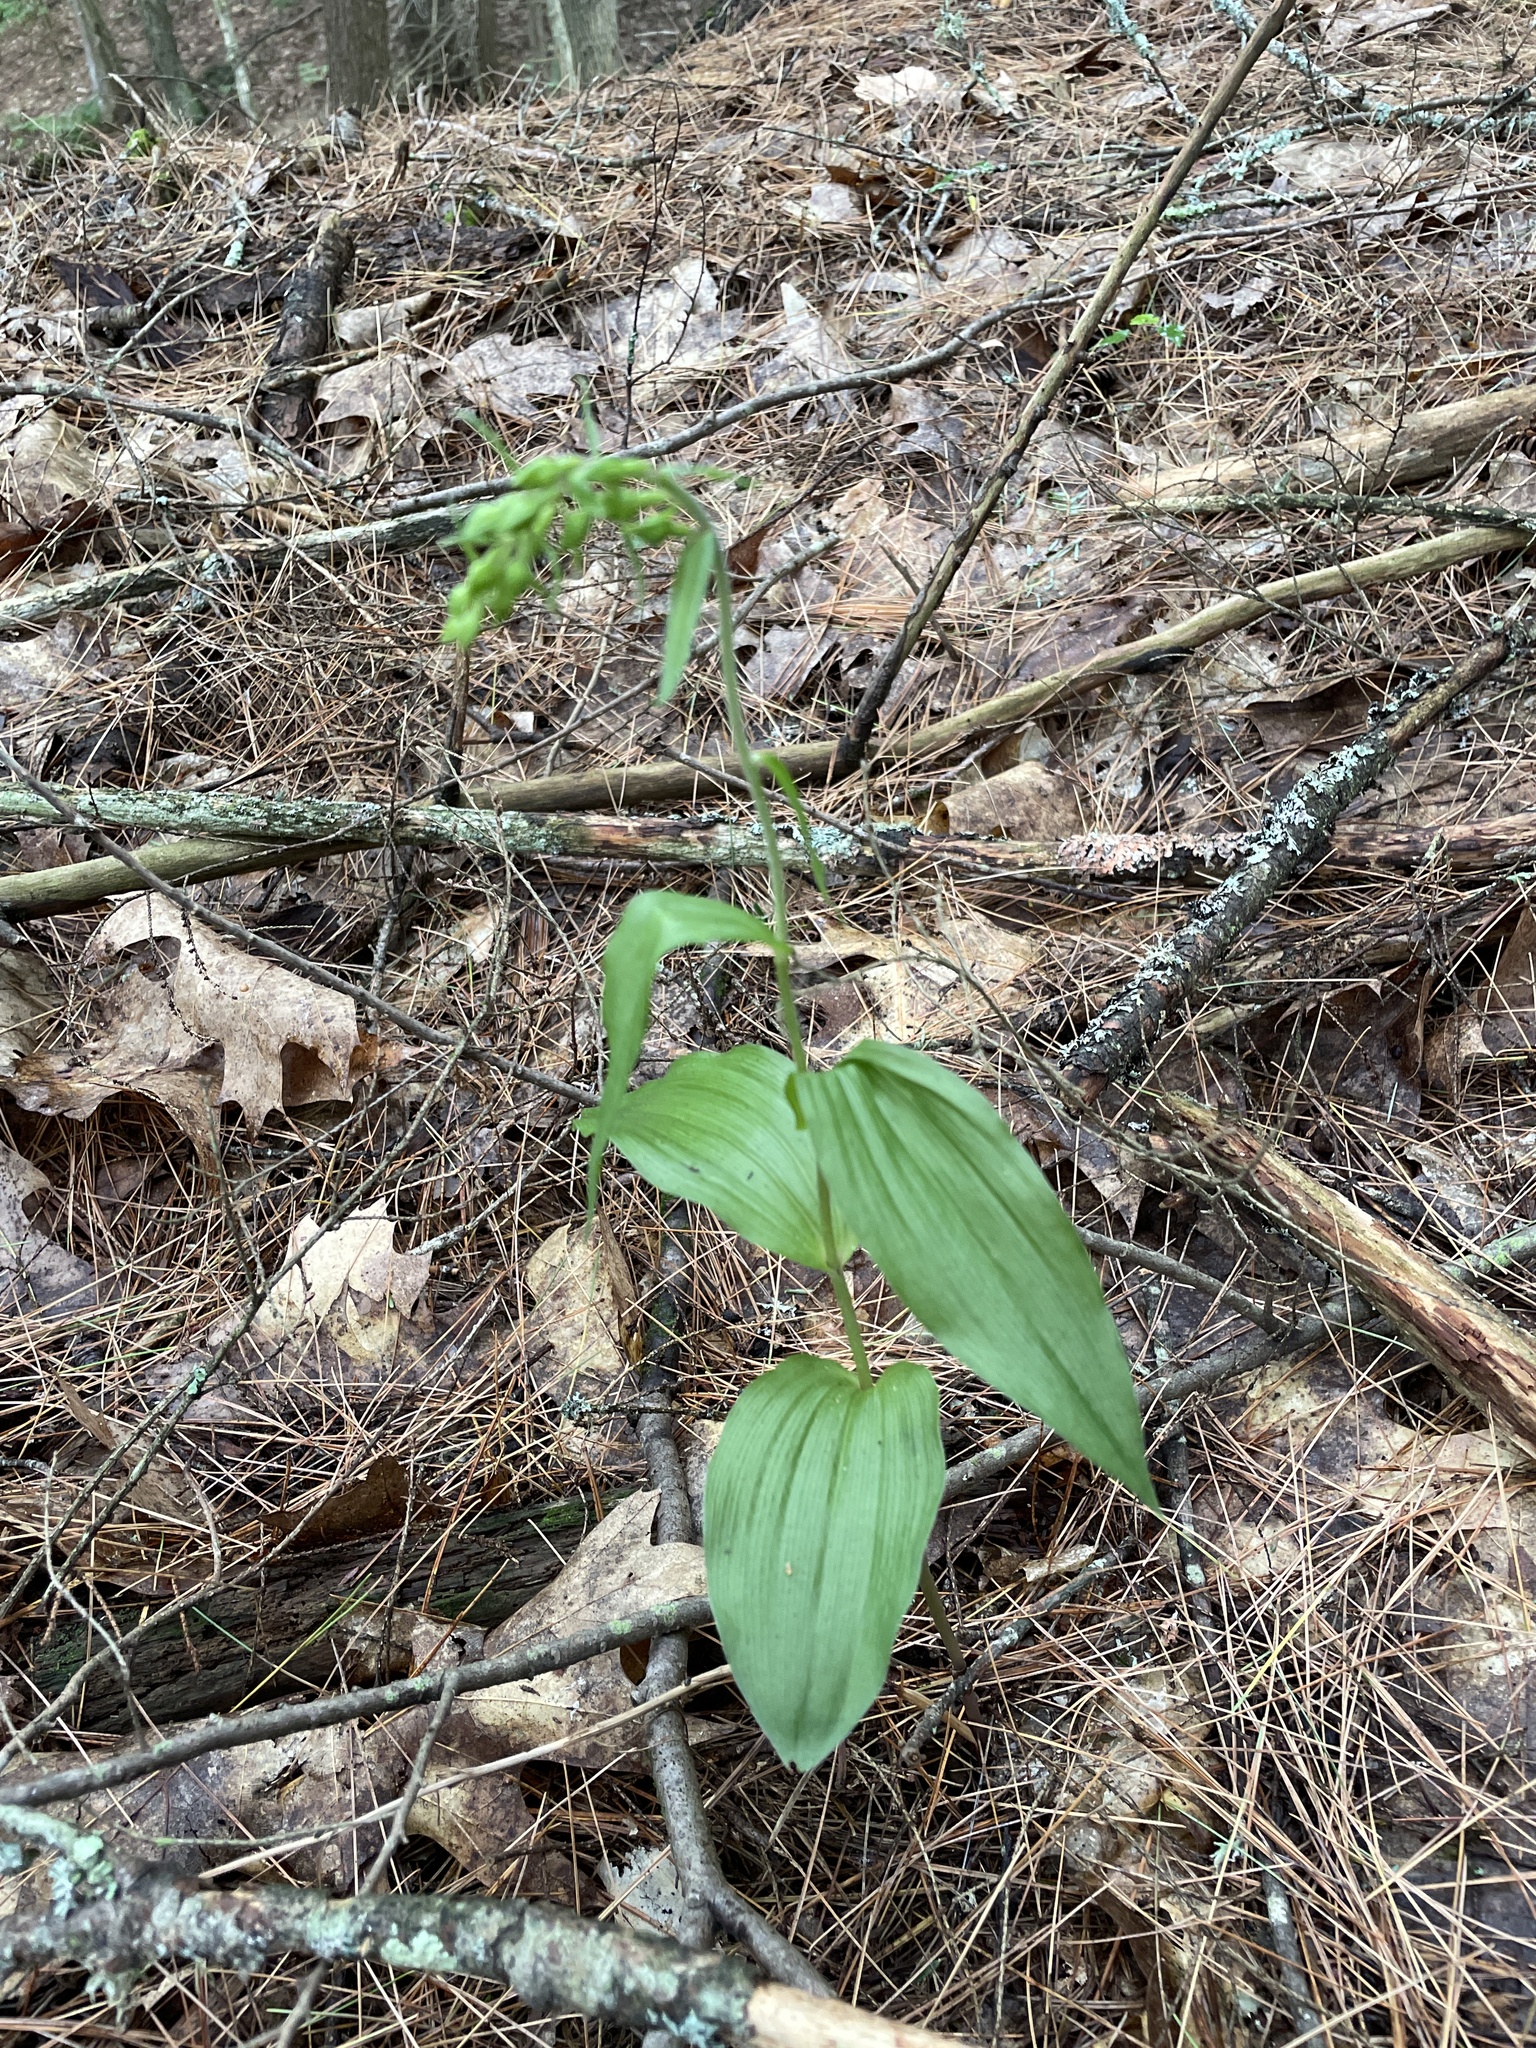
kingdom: Plantae
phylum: Tracheophyta
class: Liliopsida
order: Asparagales
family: Orchidaceae
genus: Epipactis
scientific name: Epipactis helleborine
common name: Broad-leaved helleborine
